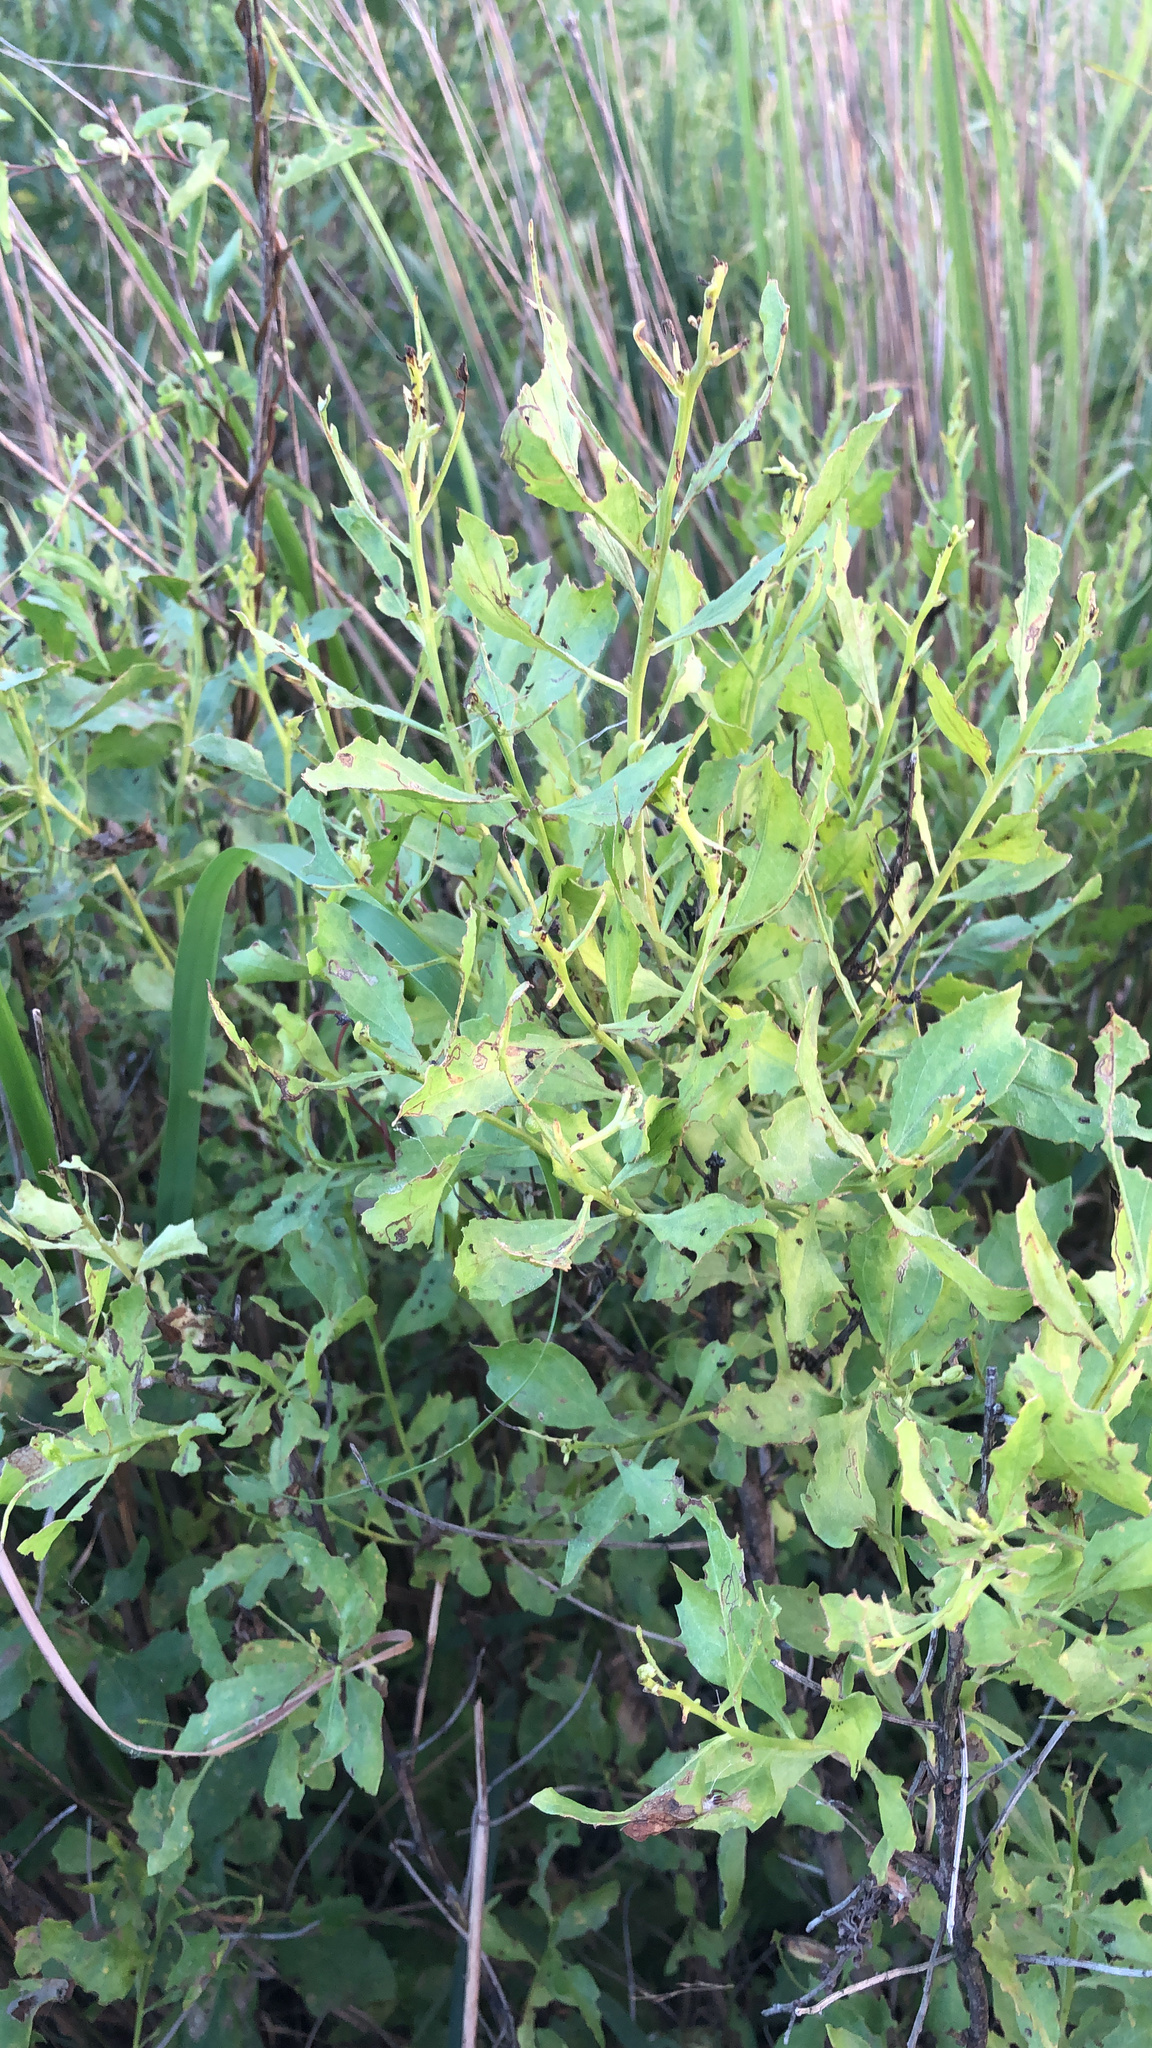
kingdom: Plantae
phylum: Tracheophyta
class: Magnoliopsida
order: Asterales
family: Asteraceae
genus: Baccharis
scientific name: Baccharis halimifolia
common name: Eastern baccharis
